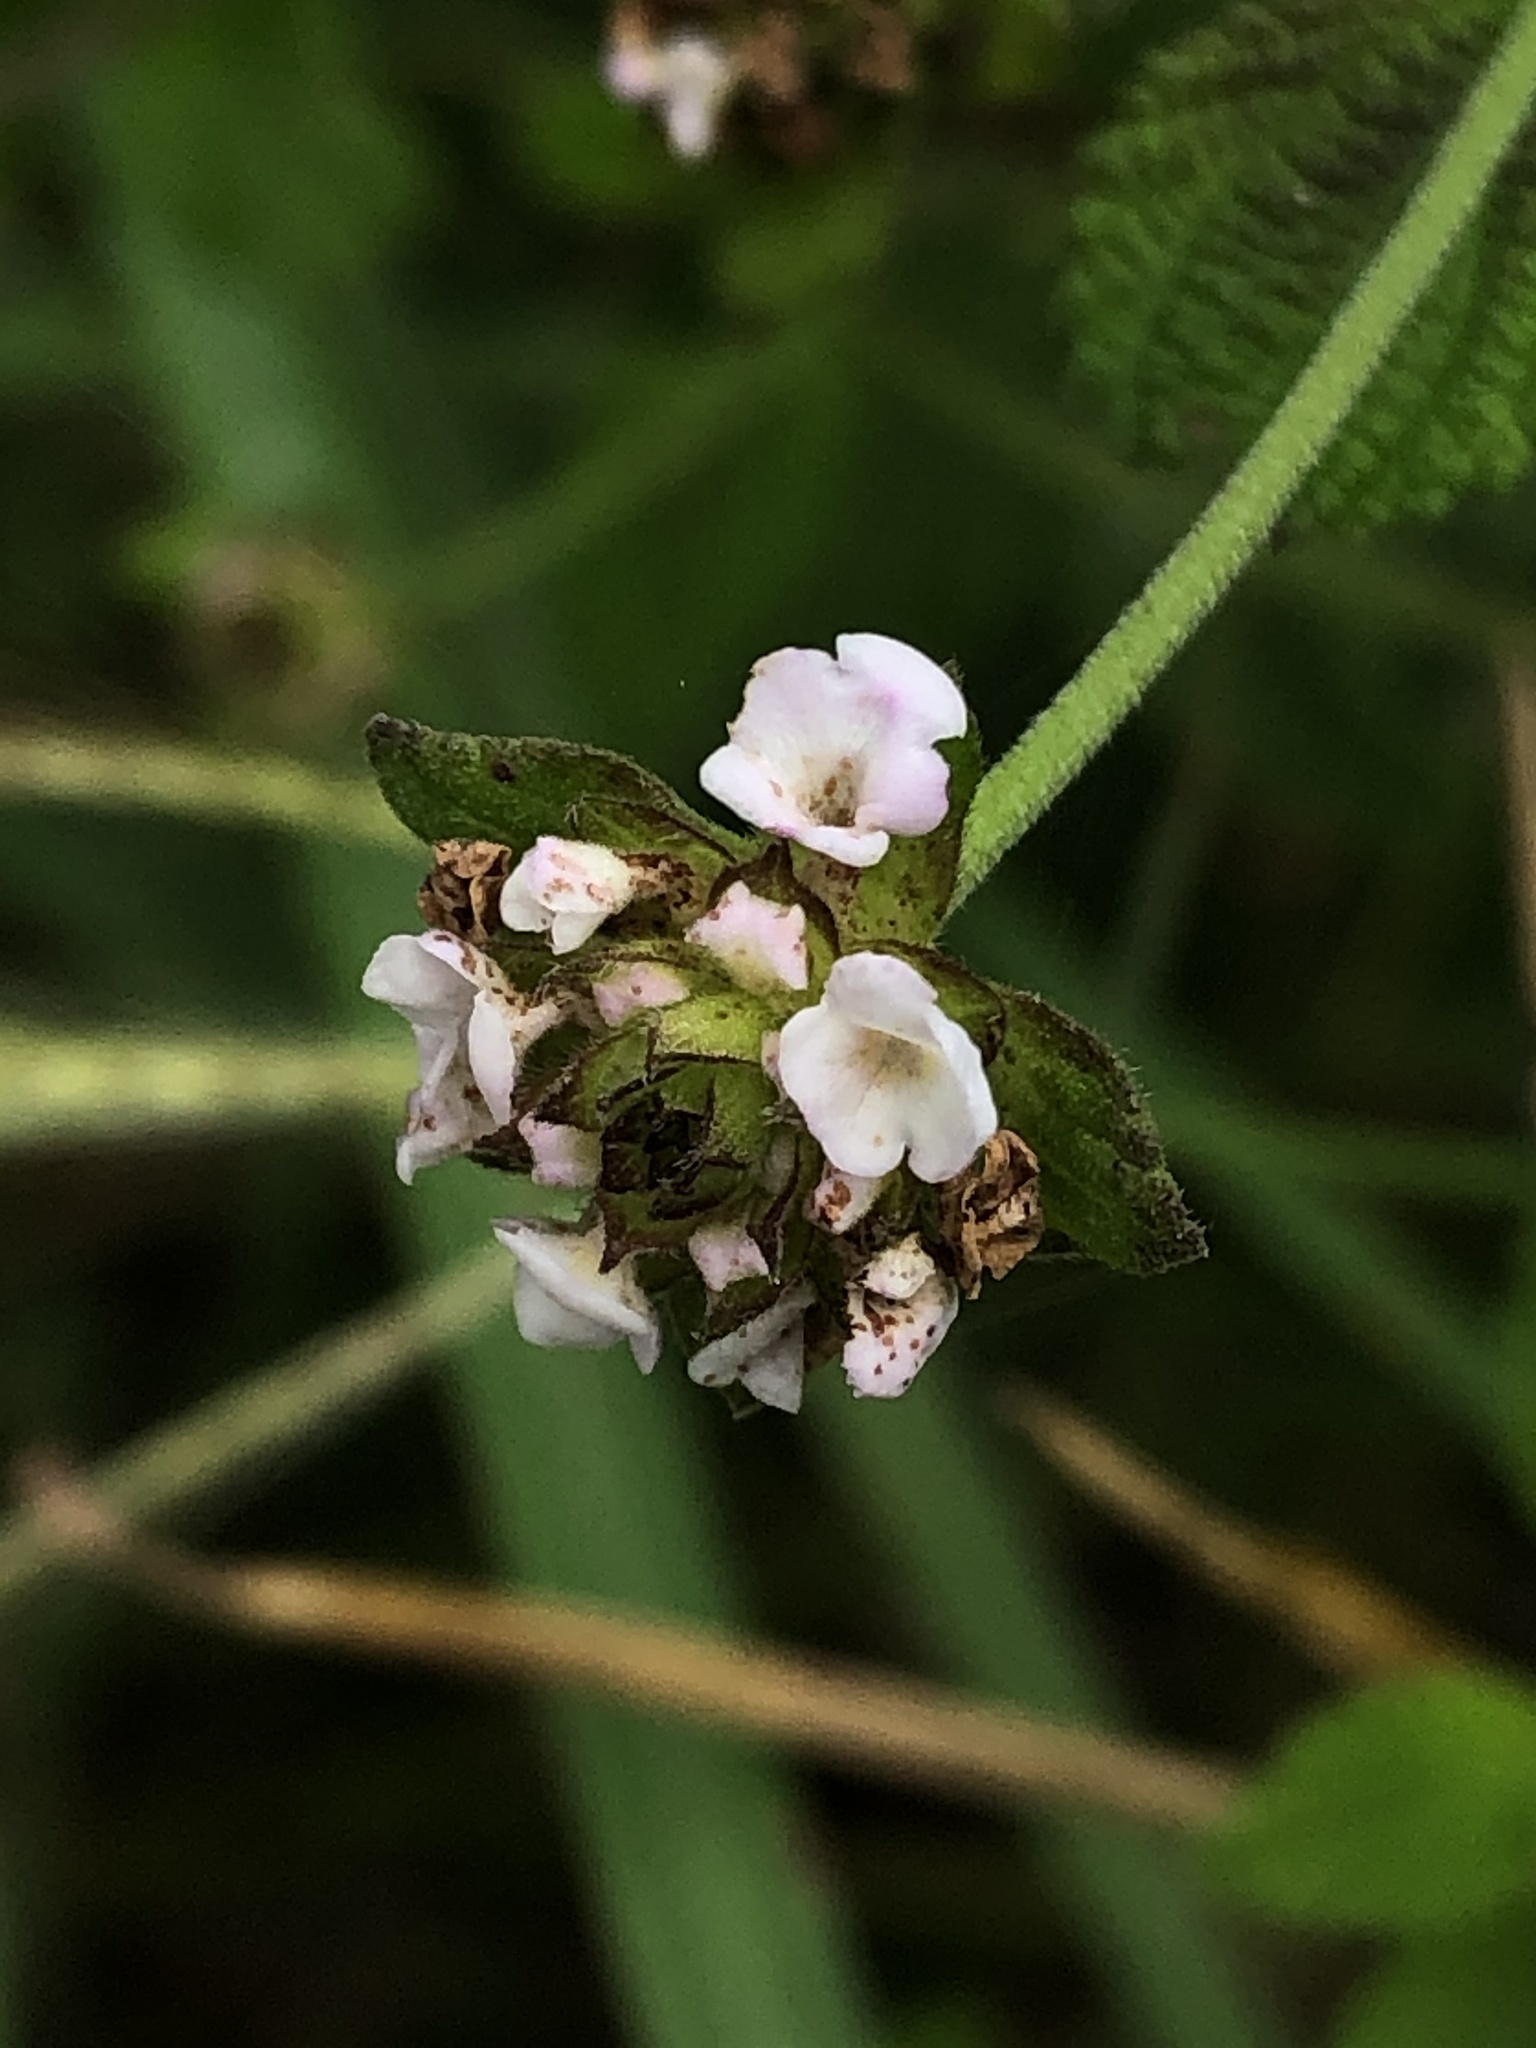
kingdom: Plantae
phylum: Tracheophyta
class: Magnoliopsida
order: Lamiales
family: Verbenaceae
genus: Lantana
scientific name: Lantana velutina
